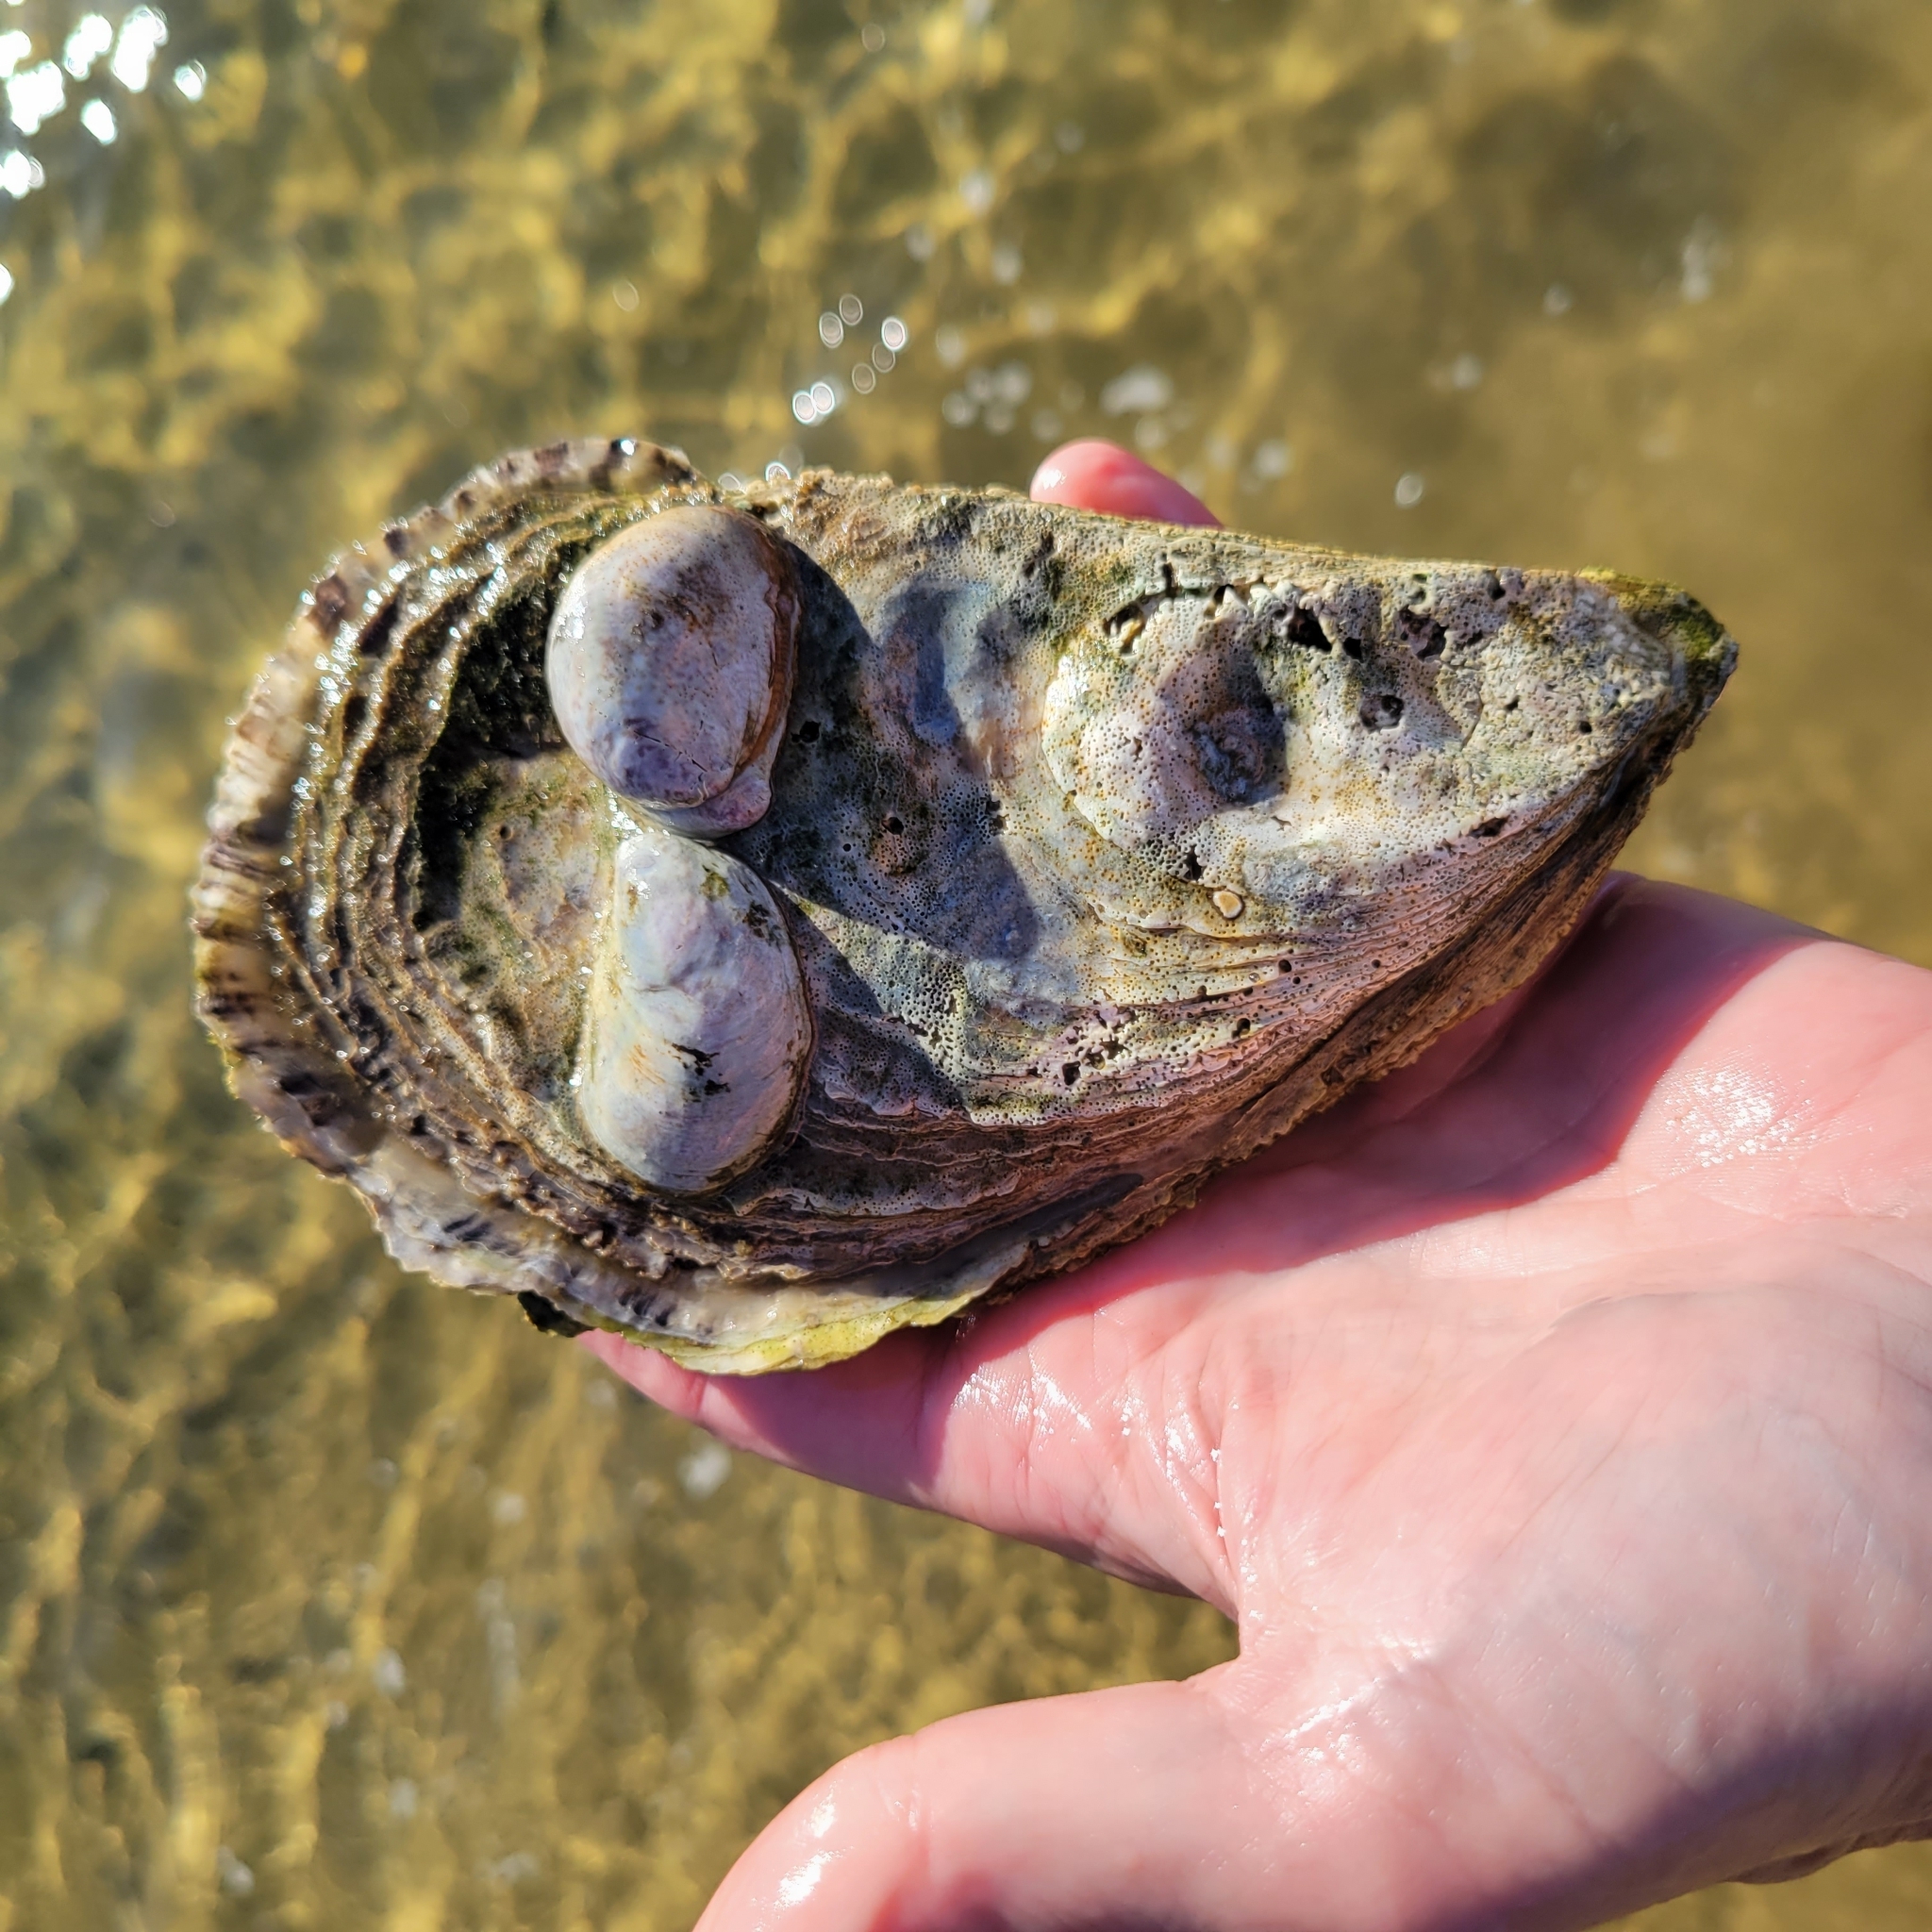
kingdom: Animalia
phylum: Mollusca
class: Bivalvia
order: Ostreida
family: Ostreidae
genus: Crassostrea
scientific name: Crassostrea virginica
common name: American oyster
